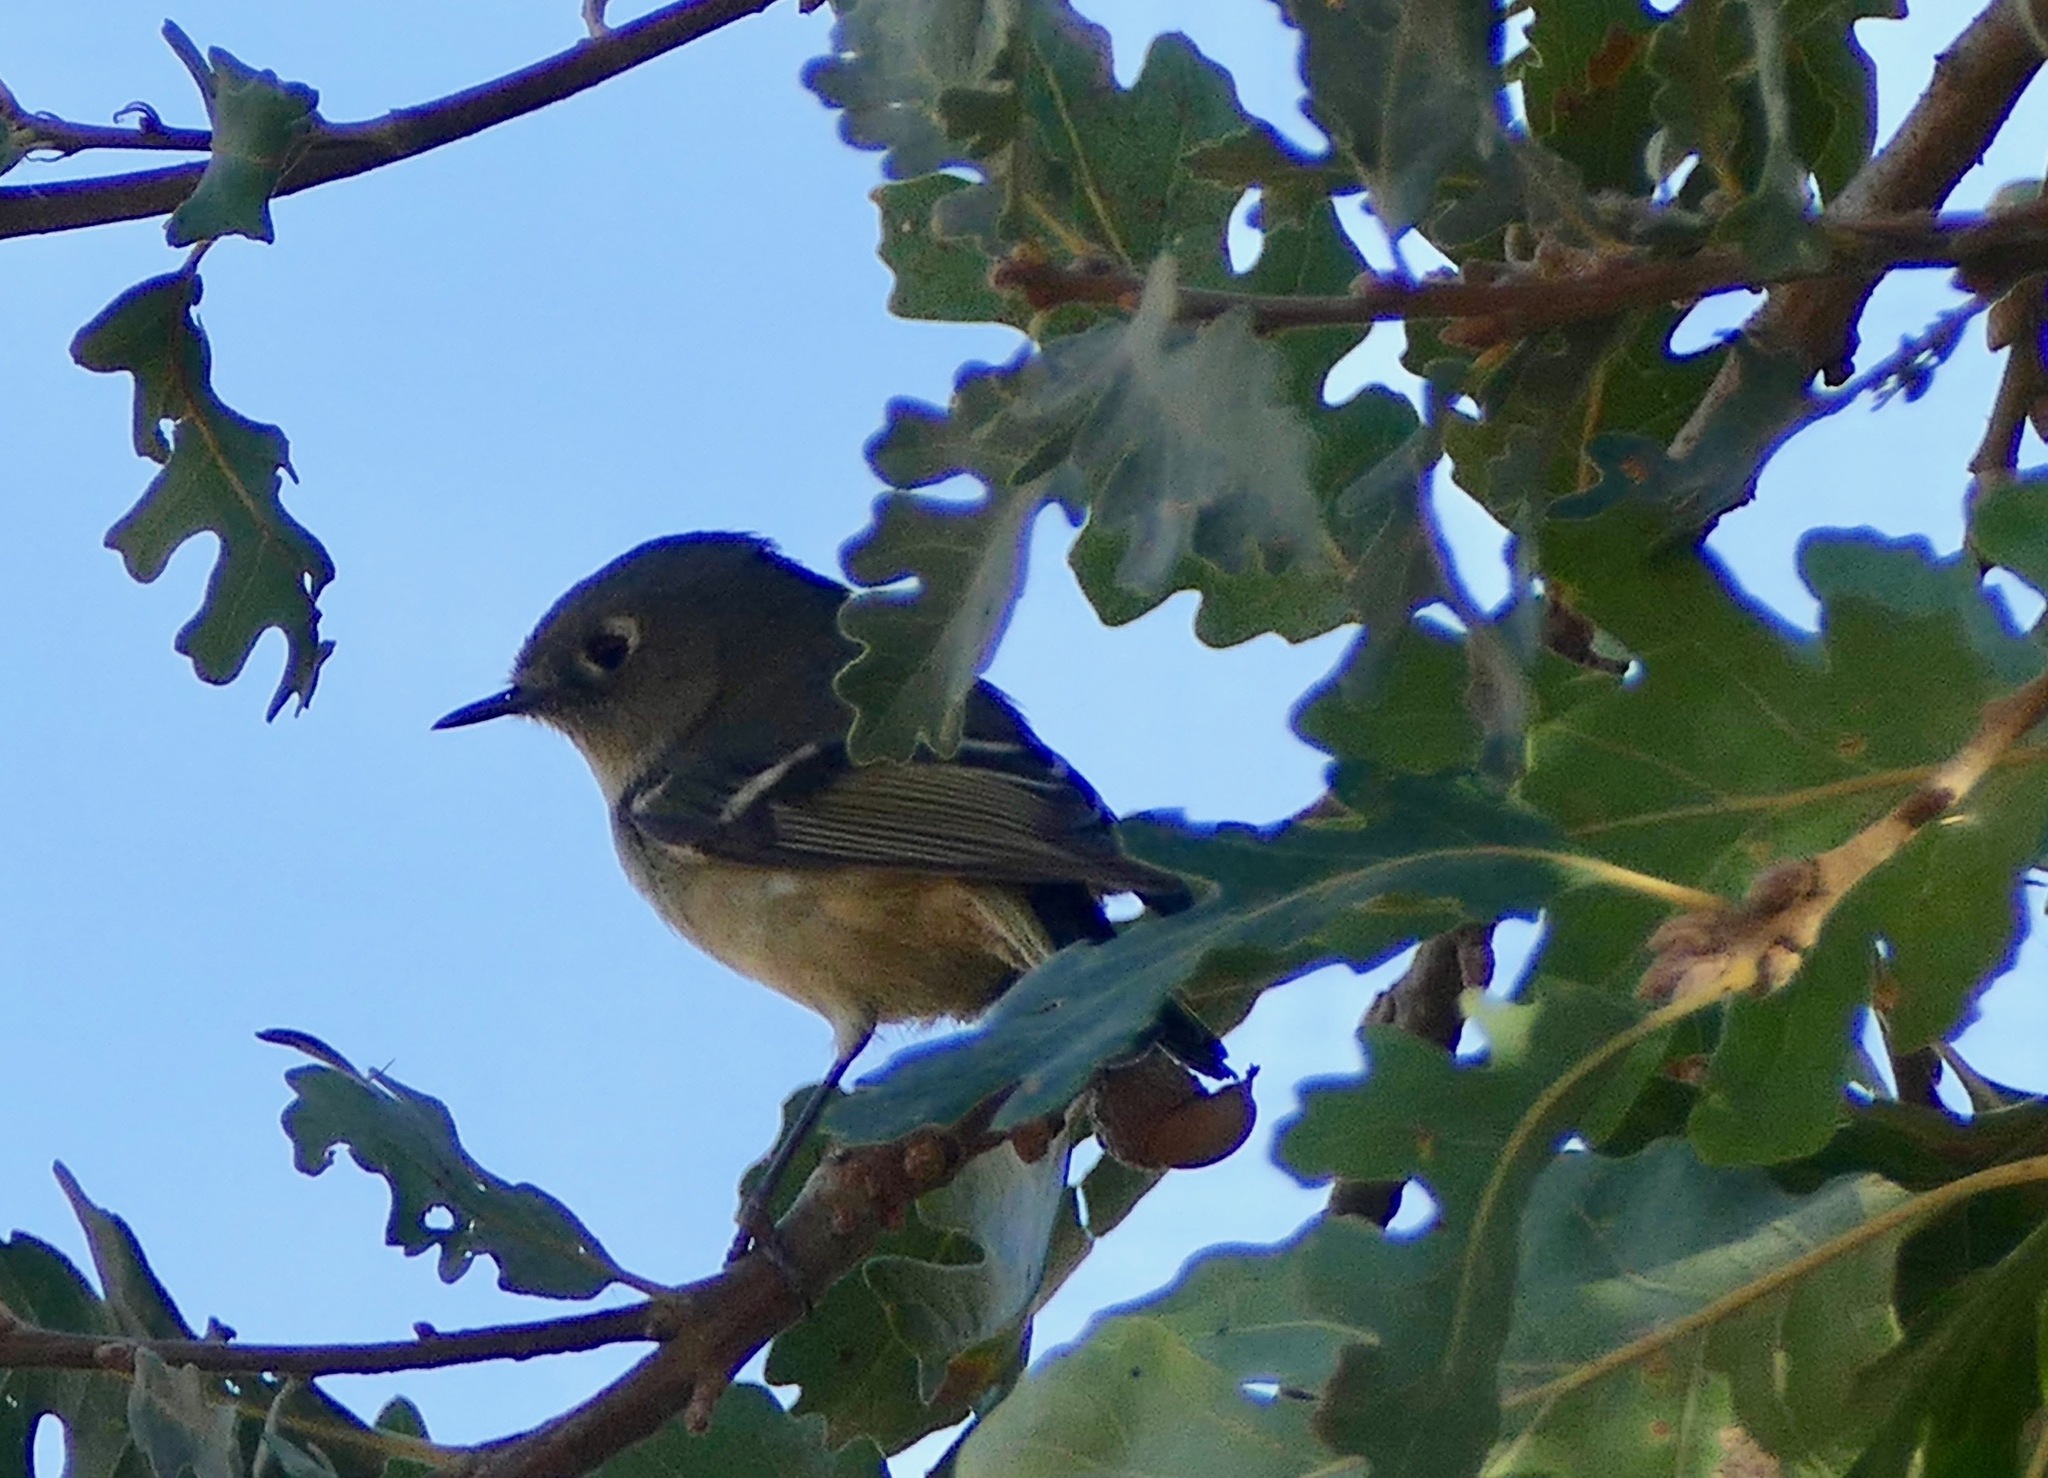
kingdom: Animalia
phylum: Chordata
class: Aves
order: Passeriformes
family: Regulidae
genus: Regulus
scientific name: Regulus calendula
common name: Ruby-crowned kinglet
